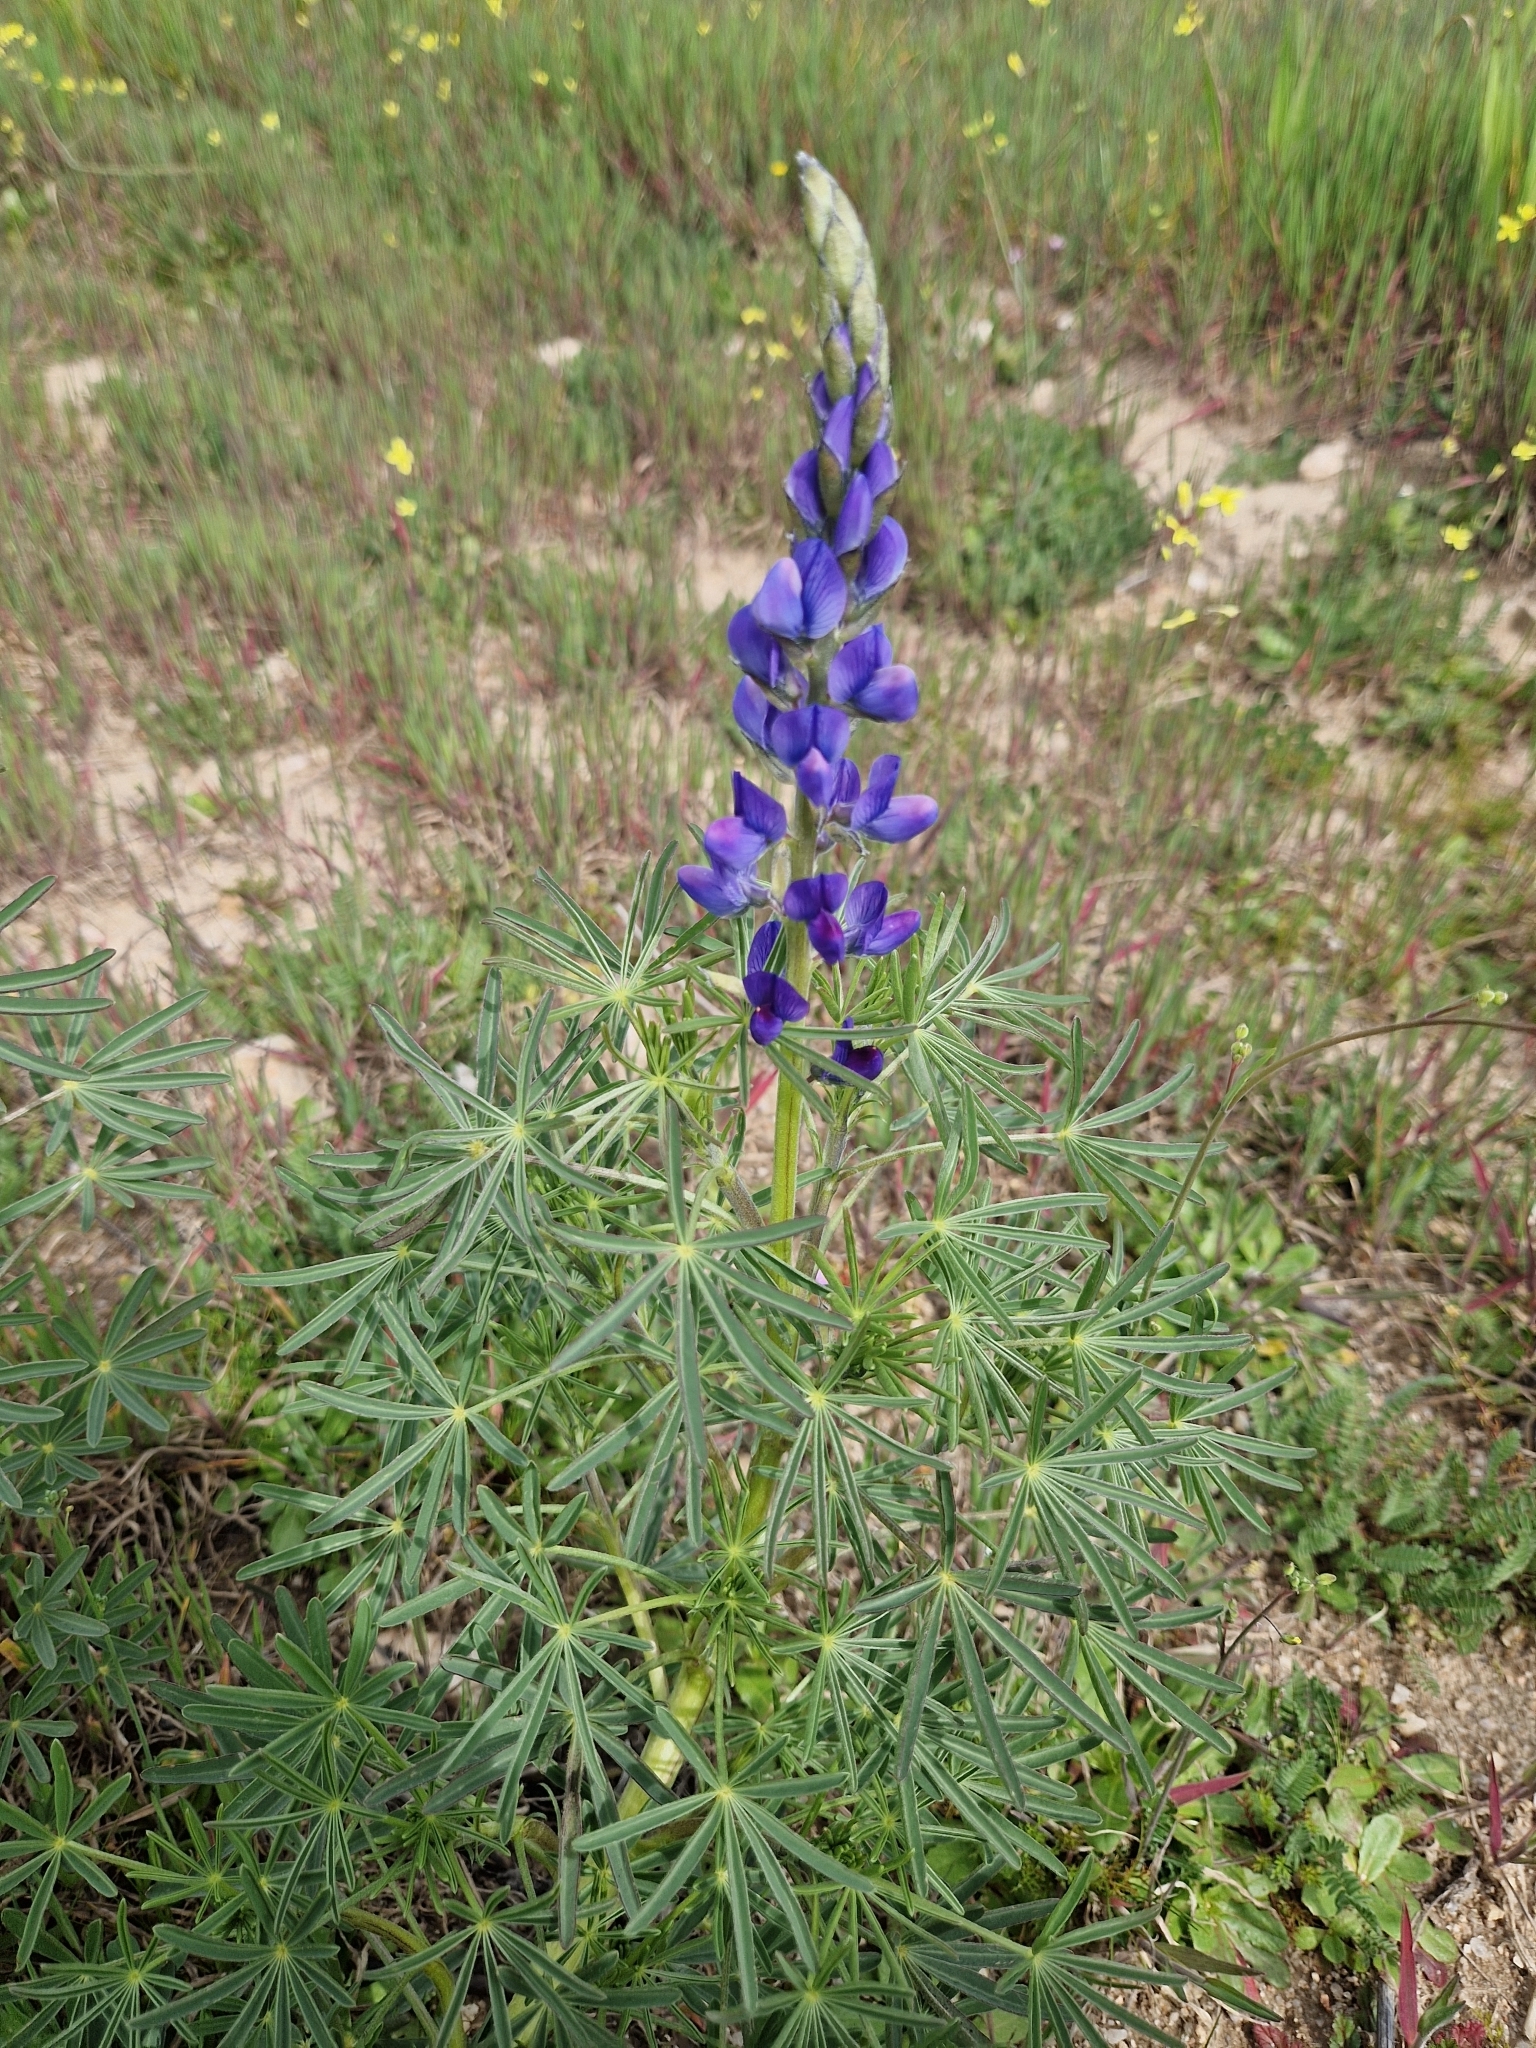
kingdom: Plantae
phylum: Tracheophyta
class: Magnoliopsida
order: Fabales
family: Fabaceae
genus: Lupinus
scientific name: Lupinus angustifolius
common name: Narrow-leaved lupin
